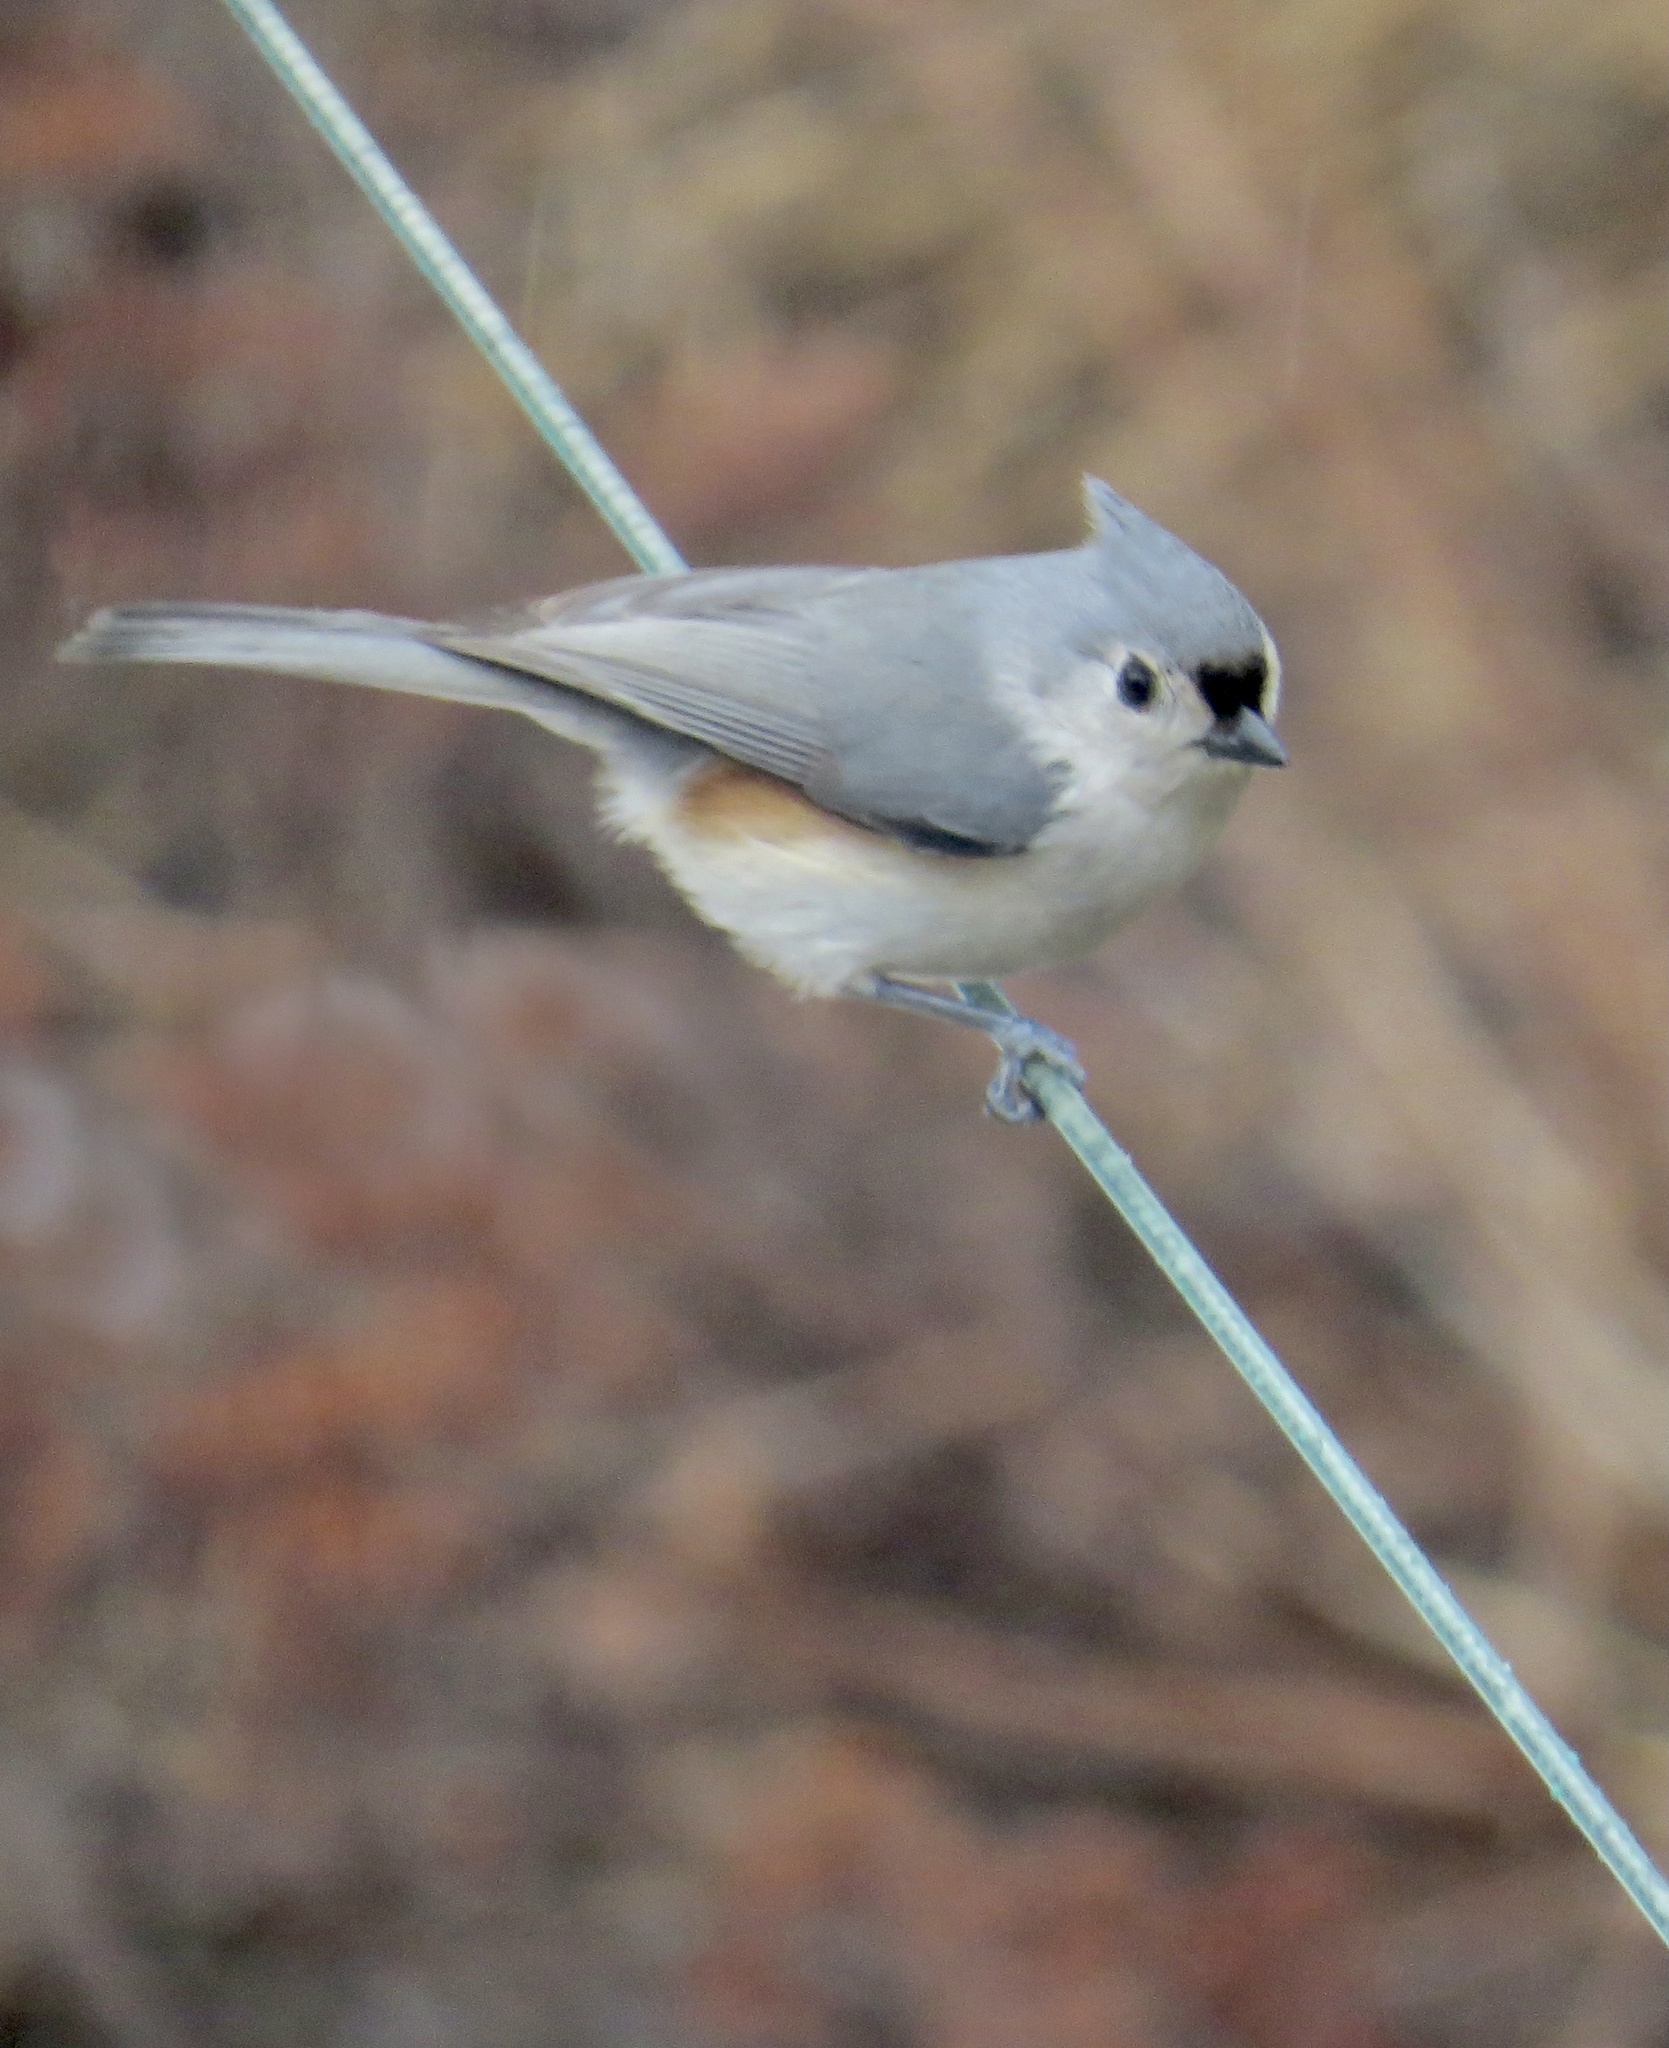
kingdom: Animalia
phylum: Chordata
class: Aves
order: Passeriformes
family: Paridae
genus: Baeolophus
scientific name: Baeolophus bicolor
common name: Tufted titmouse
